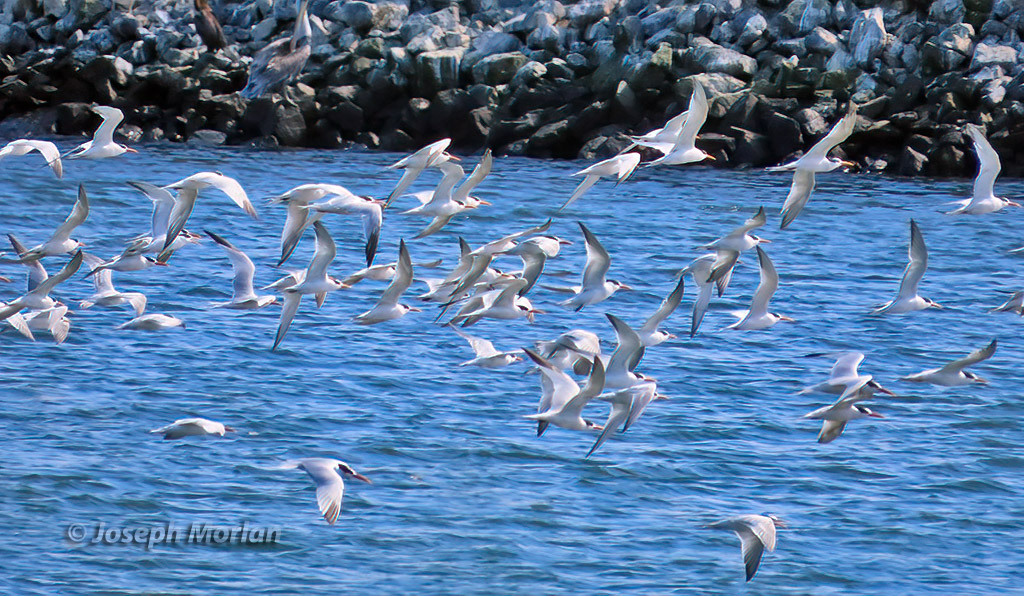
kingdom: Animalia
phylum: Chordata
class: Aves
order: Charadriiformes
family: Laridae
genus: Thalasseus
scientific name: Thalasseus elegans
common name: Elegant tern
